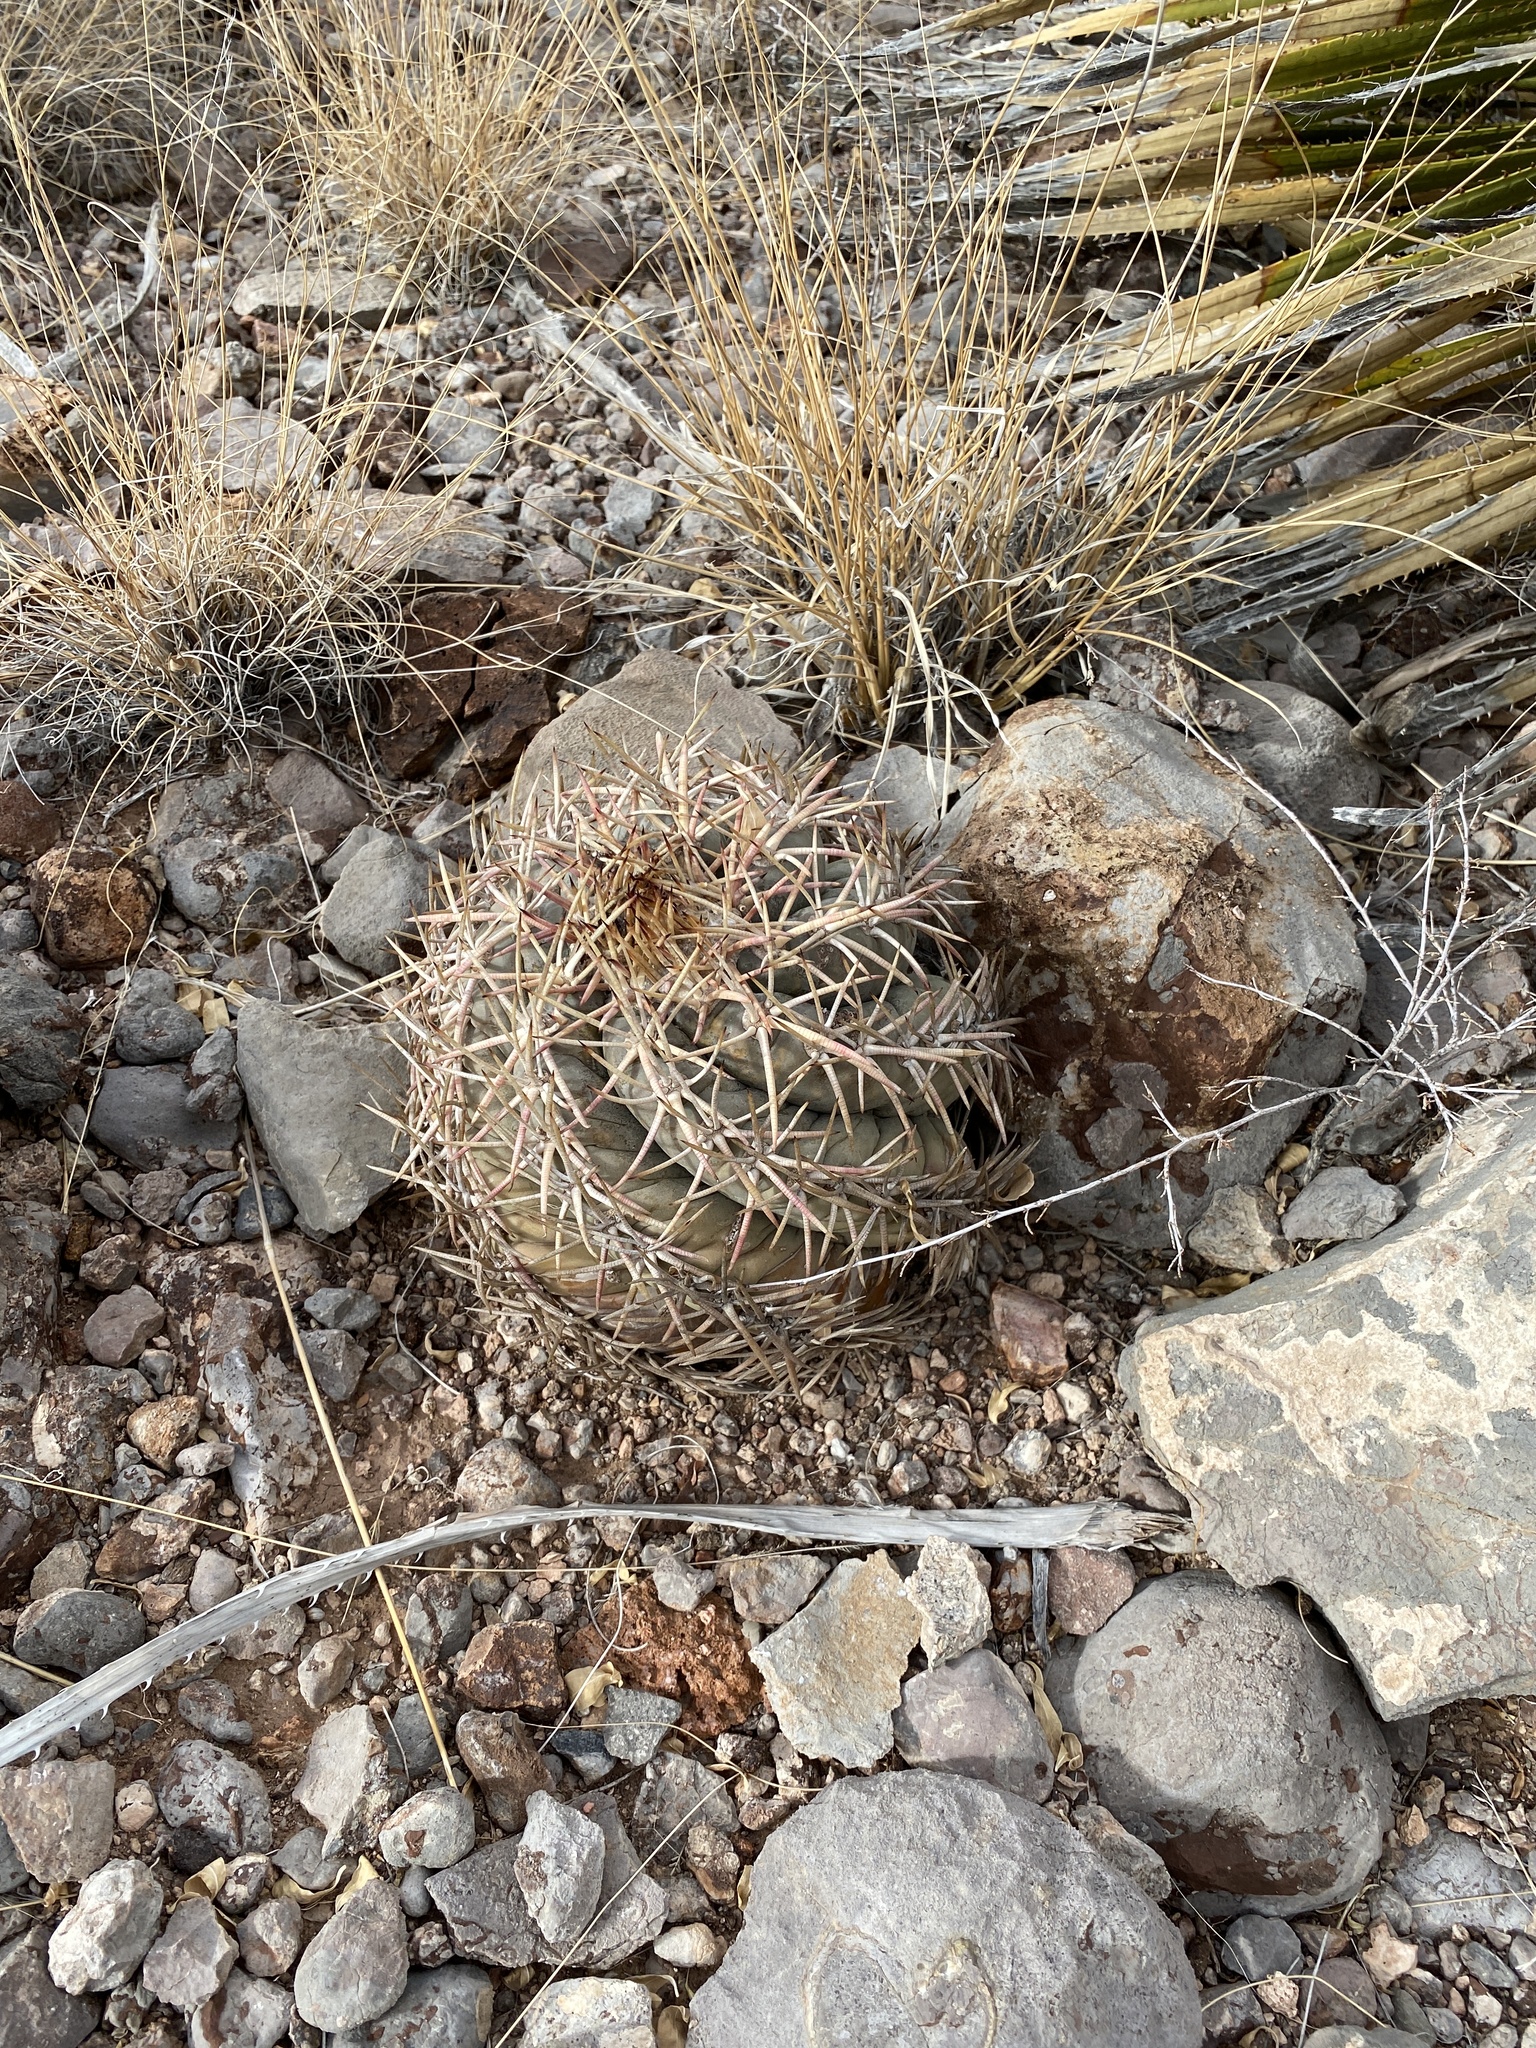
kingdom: Plantae
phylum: Tracheophyta
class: Magnoliopsida
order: Caryophyllales
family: Cactaceae
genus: Echinocactus
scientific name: Echinocactus horizonthalonius
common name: Devilshead
